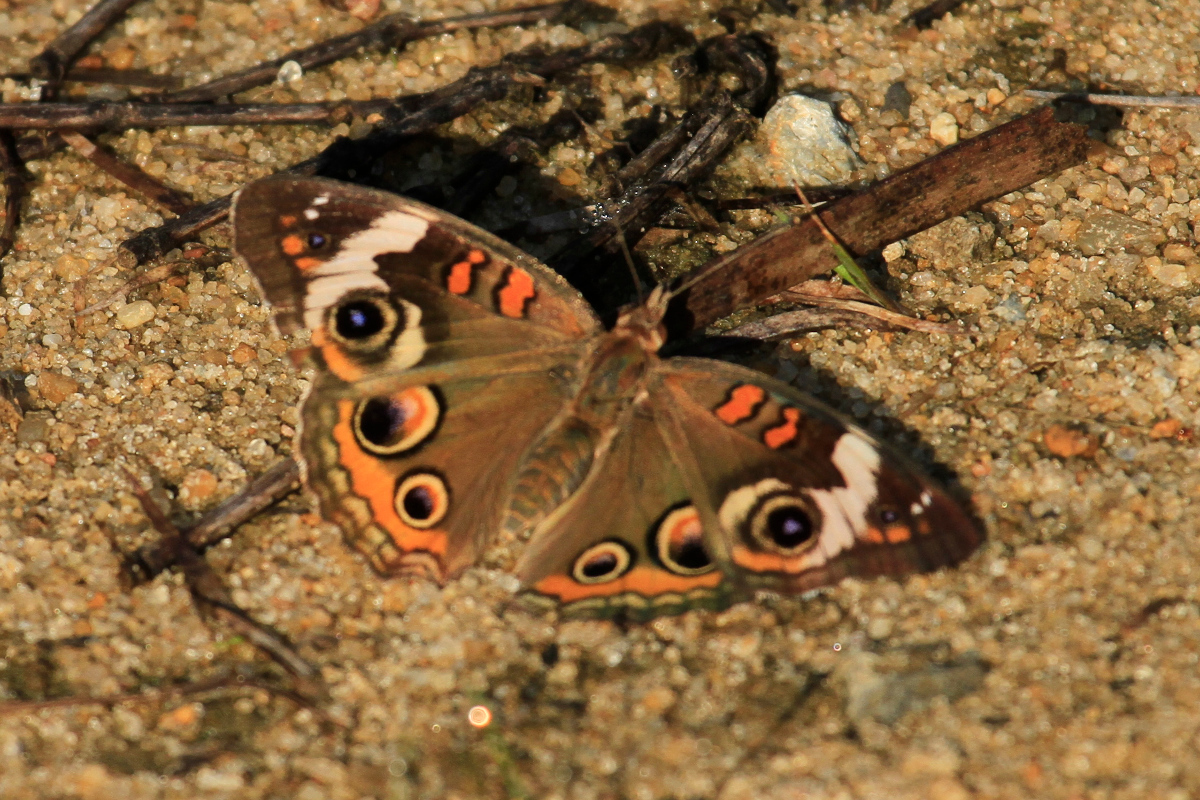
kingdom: Animalia
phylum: Arthropoda
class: Insecta
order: Lepidoptera
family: Nymphalidae
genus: Junonia
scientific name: Junonia coenia
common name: Common buckeye
